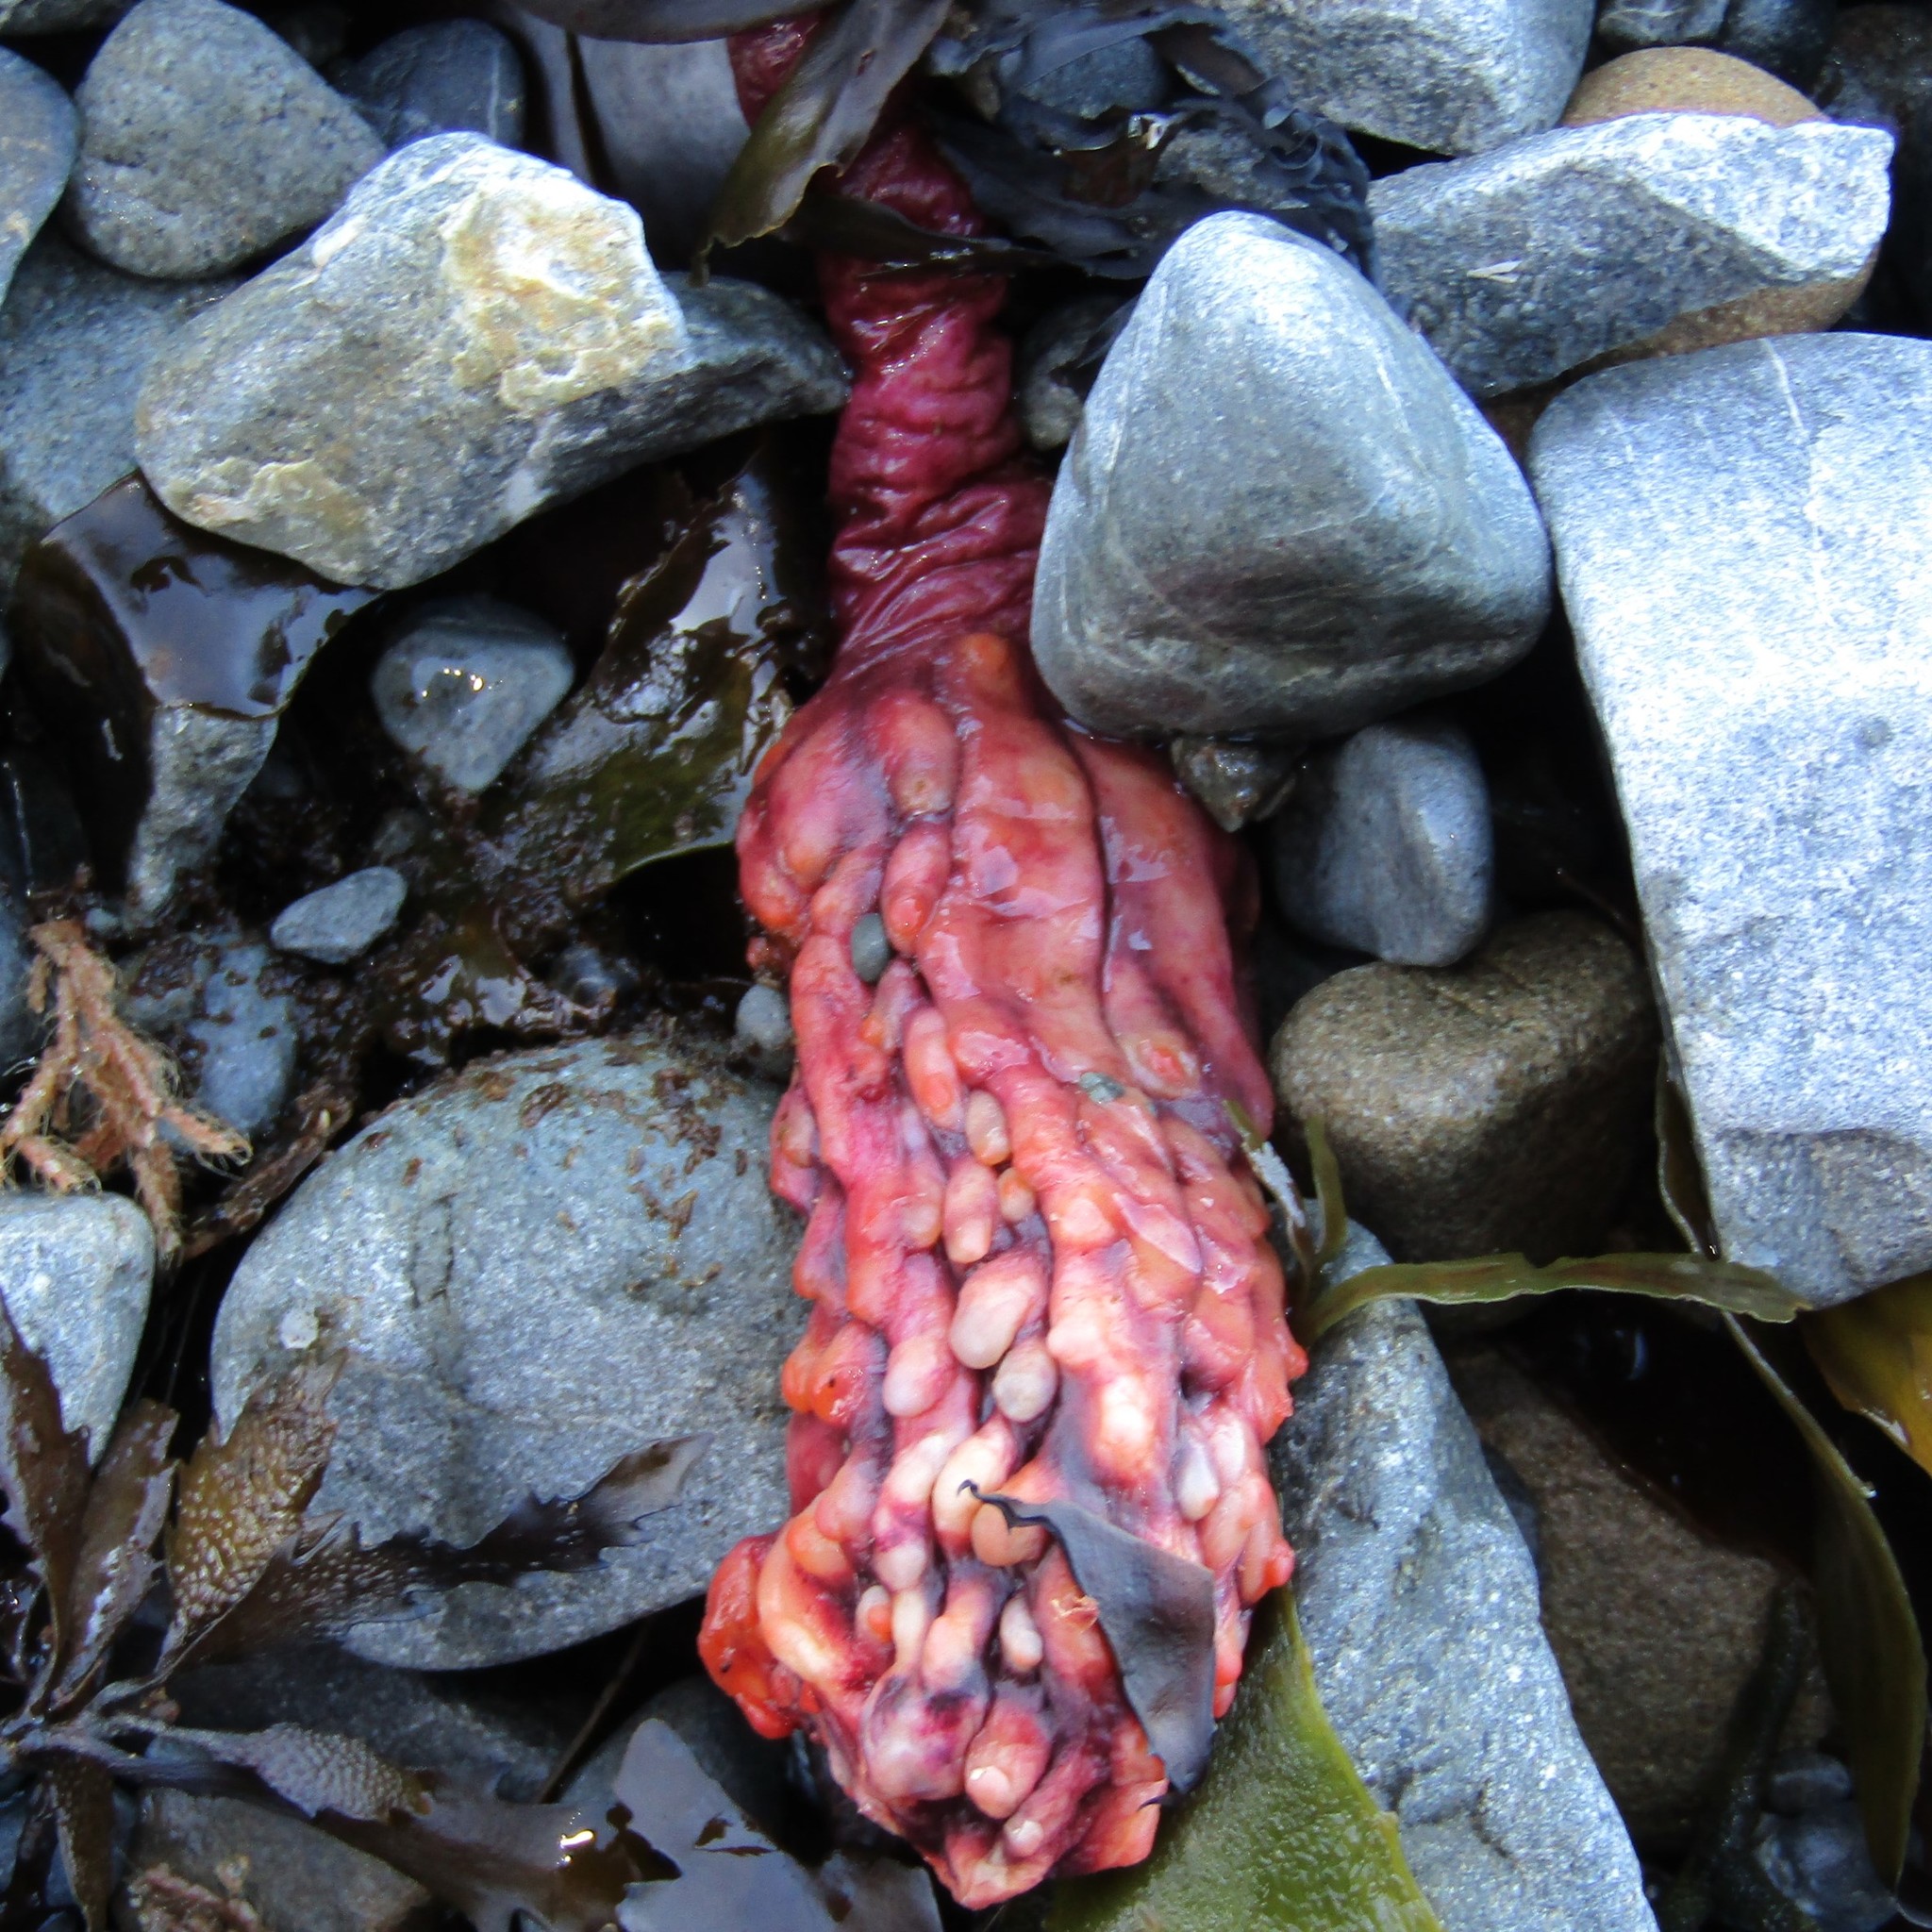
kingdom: Animalia
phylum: Chordata
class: Ascidiacea
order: Stolidobranchia
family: Pyuridae
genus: Pyura
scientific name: Pyura pachydermatina
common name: Sea tulip
